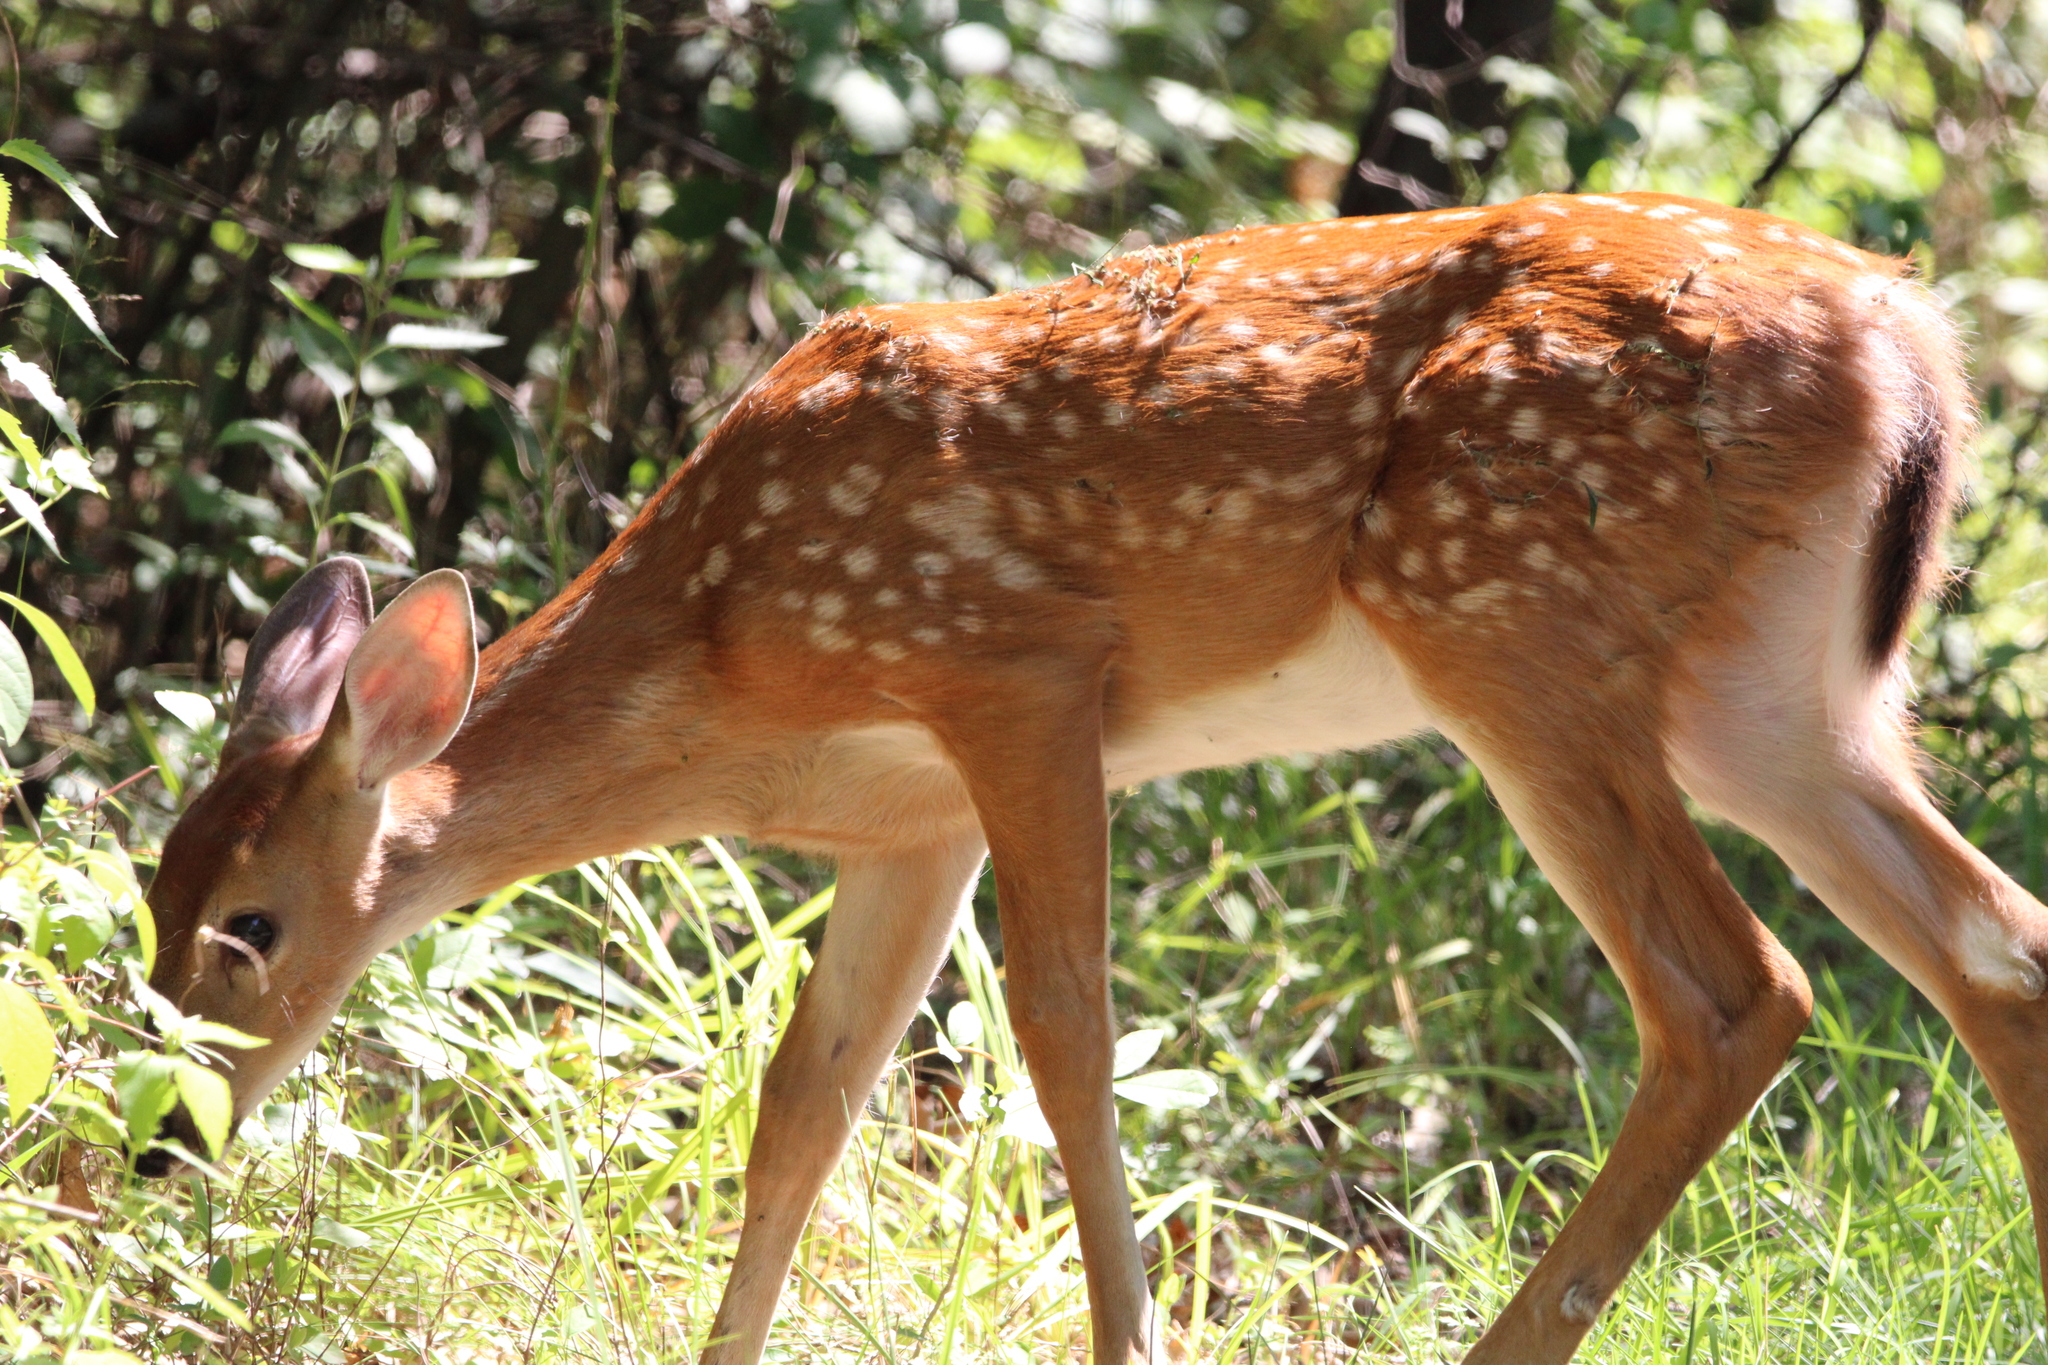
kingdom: Animalia
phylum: Chordata
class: Mammalia
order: Artiodactyla
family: Cervidae
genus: Odocoileus
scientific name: Odocoileus virginianus
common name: White-tailed deer
